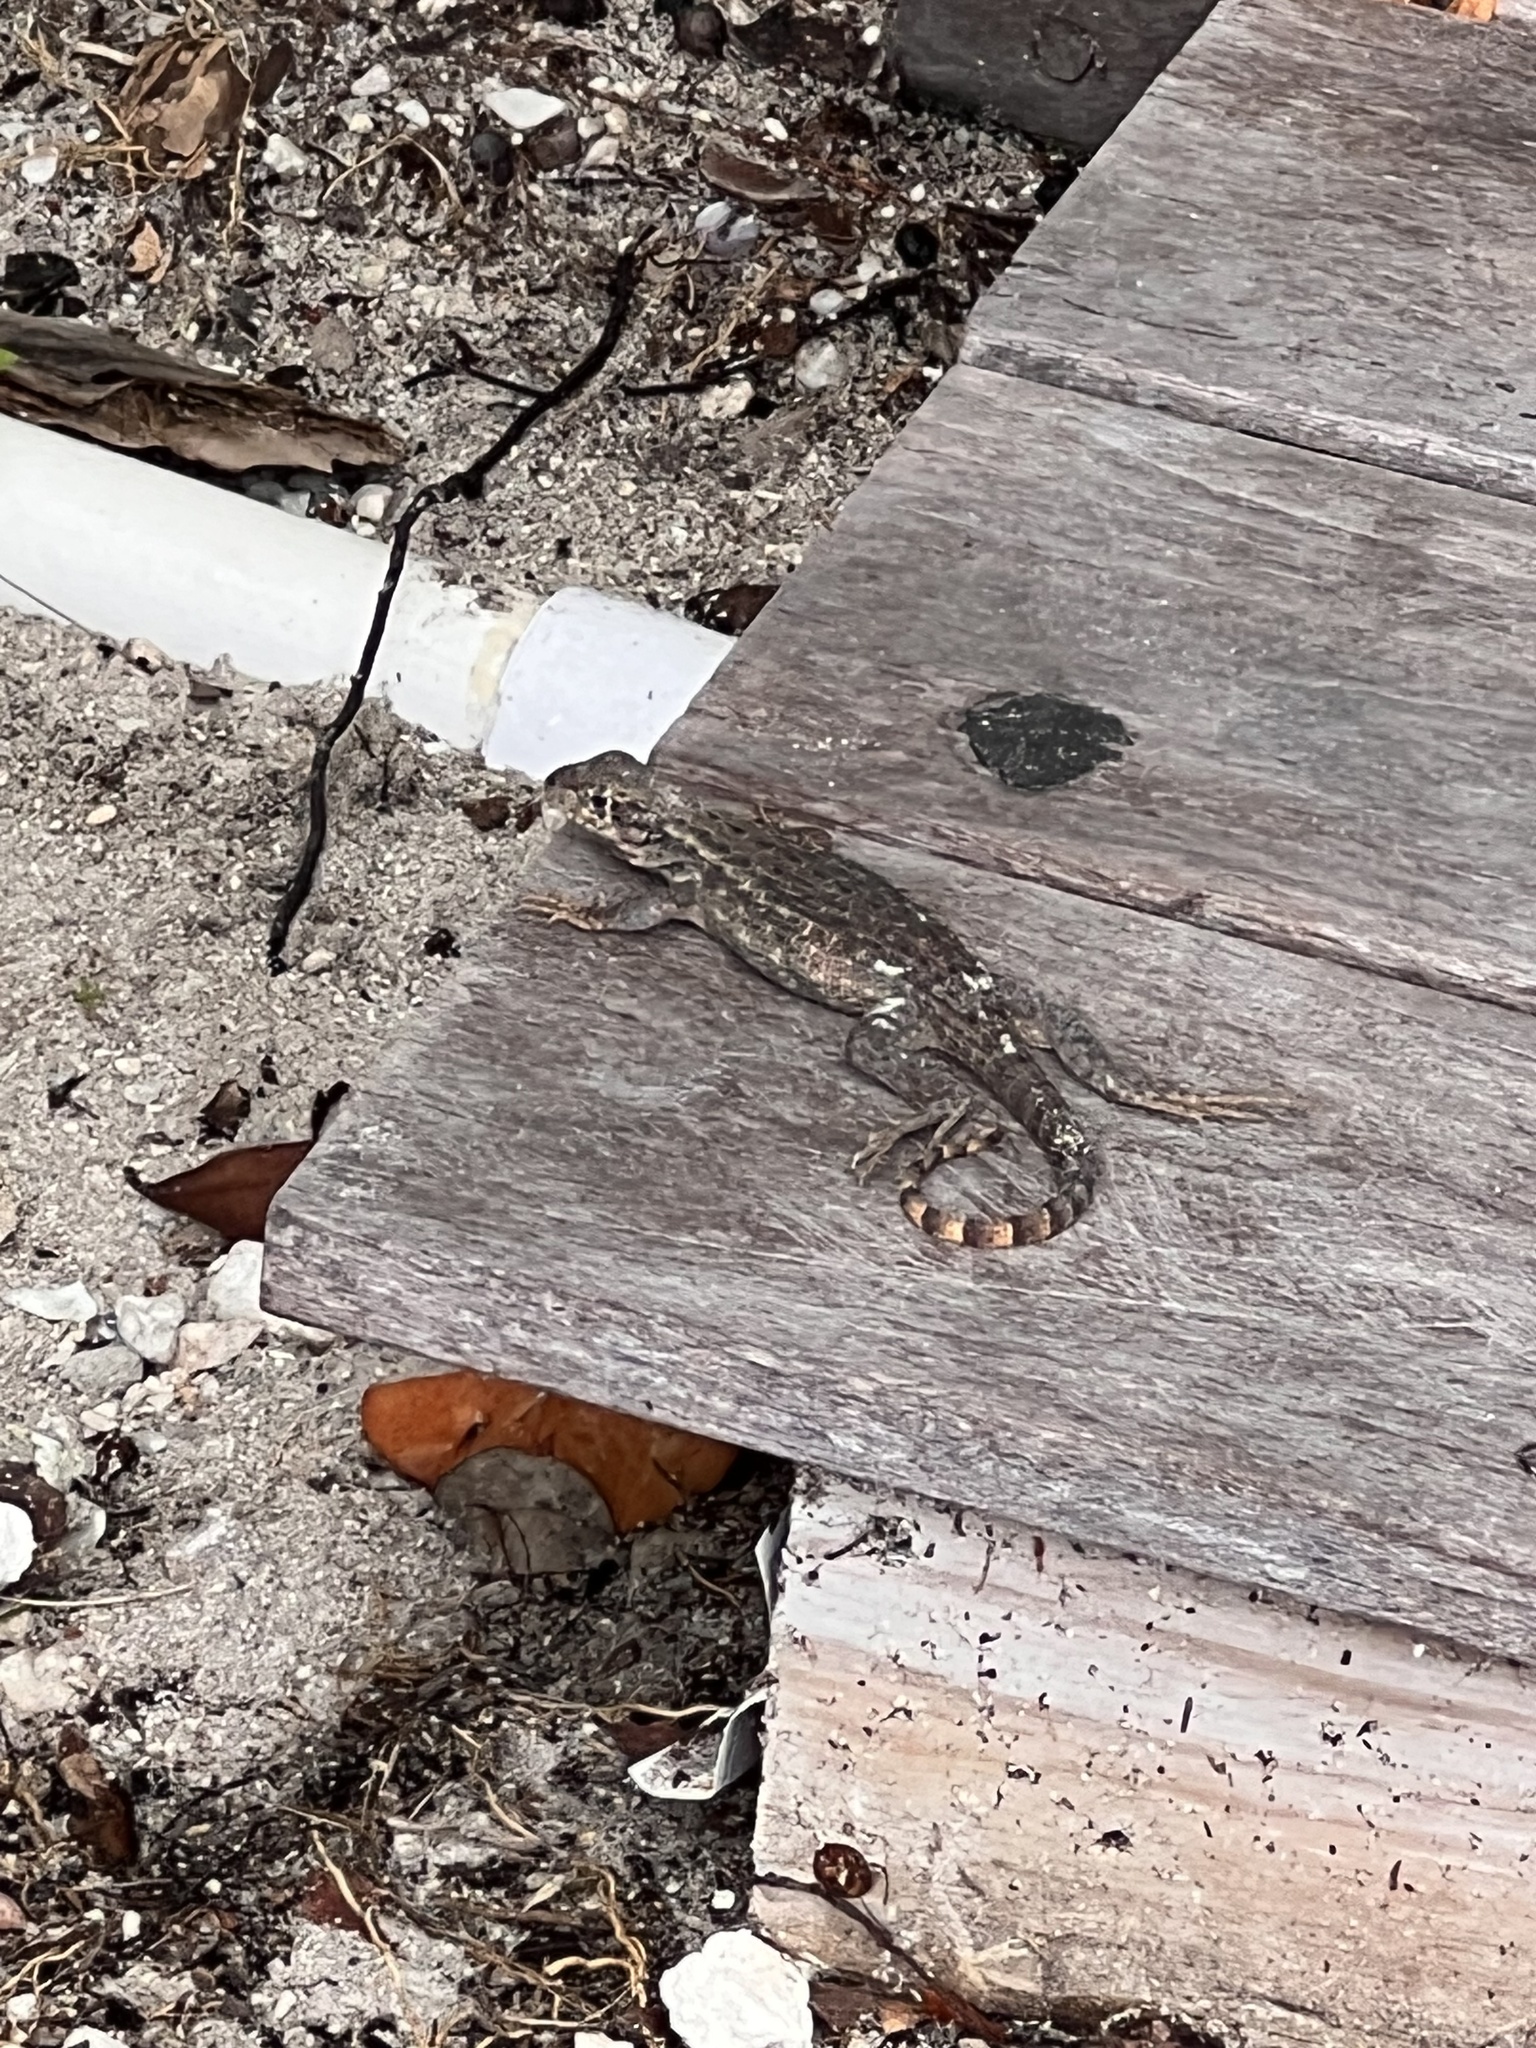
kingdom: Animalia
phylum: Chordata
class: Squamata
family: Leiocephalidae
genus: Leiocephalus
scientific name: Leiocephalus carinatus
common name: Northern curly-tailed lizard
